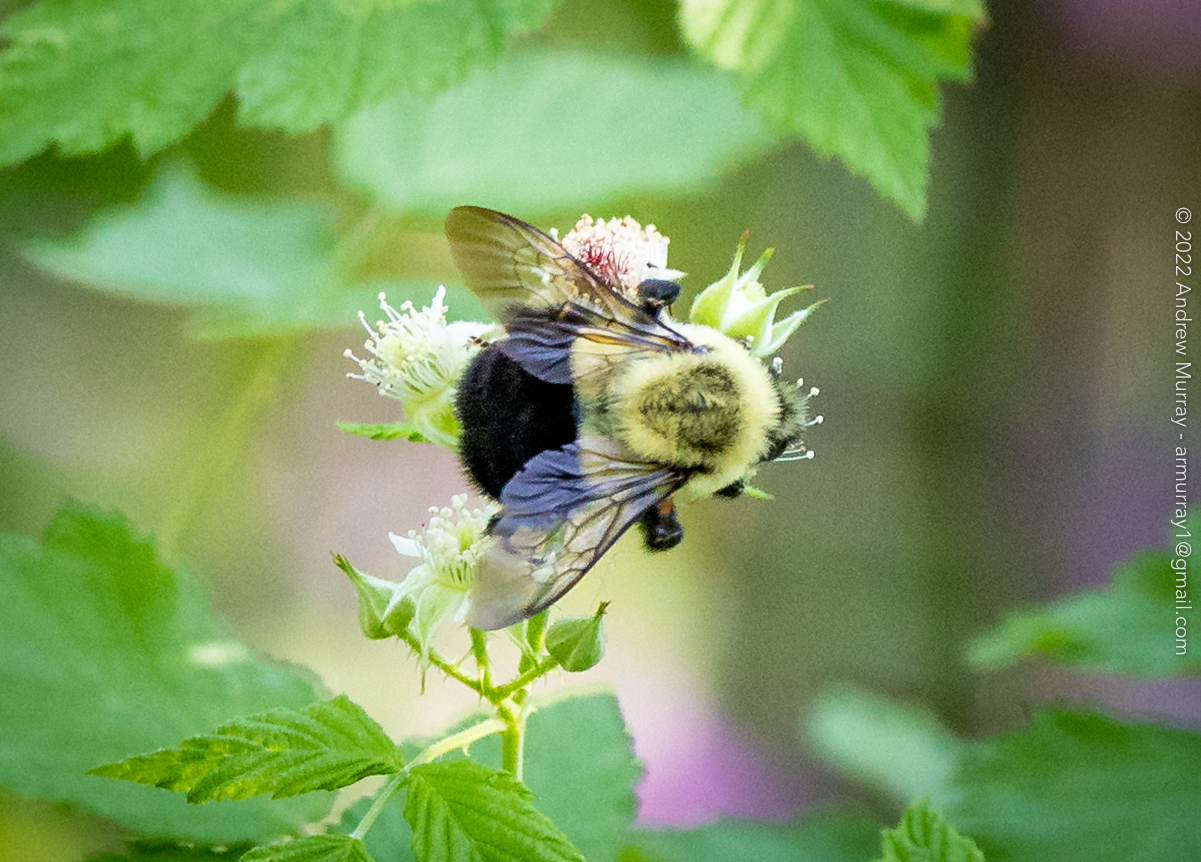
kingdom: Animalia
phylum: Arthropoda
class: Insecta
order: Hymenoptera
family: Apidae
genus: Bombus
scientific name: Bombus impatiens
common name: Common eastern bumble bee
